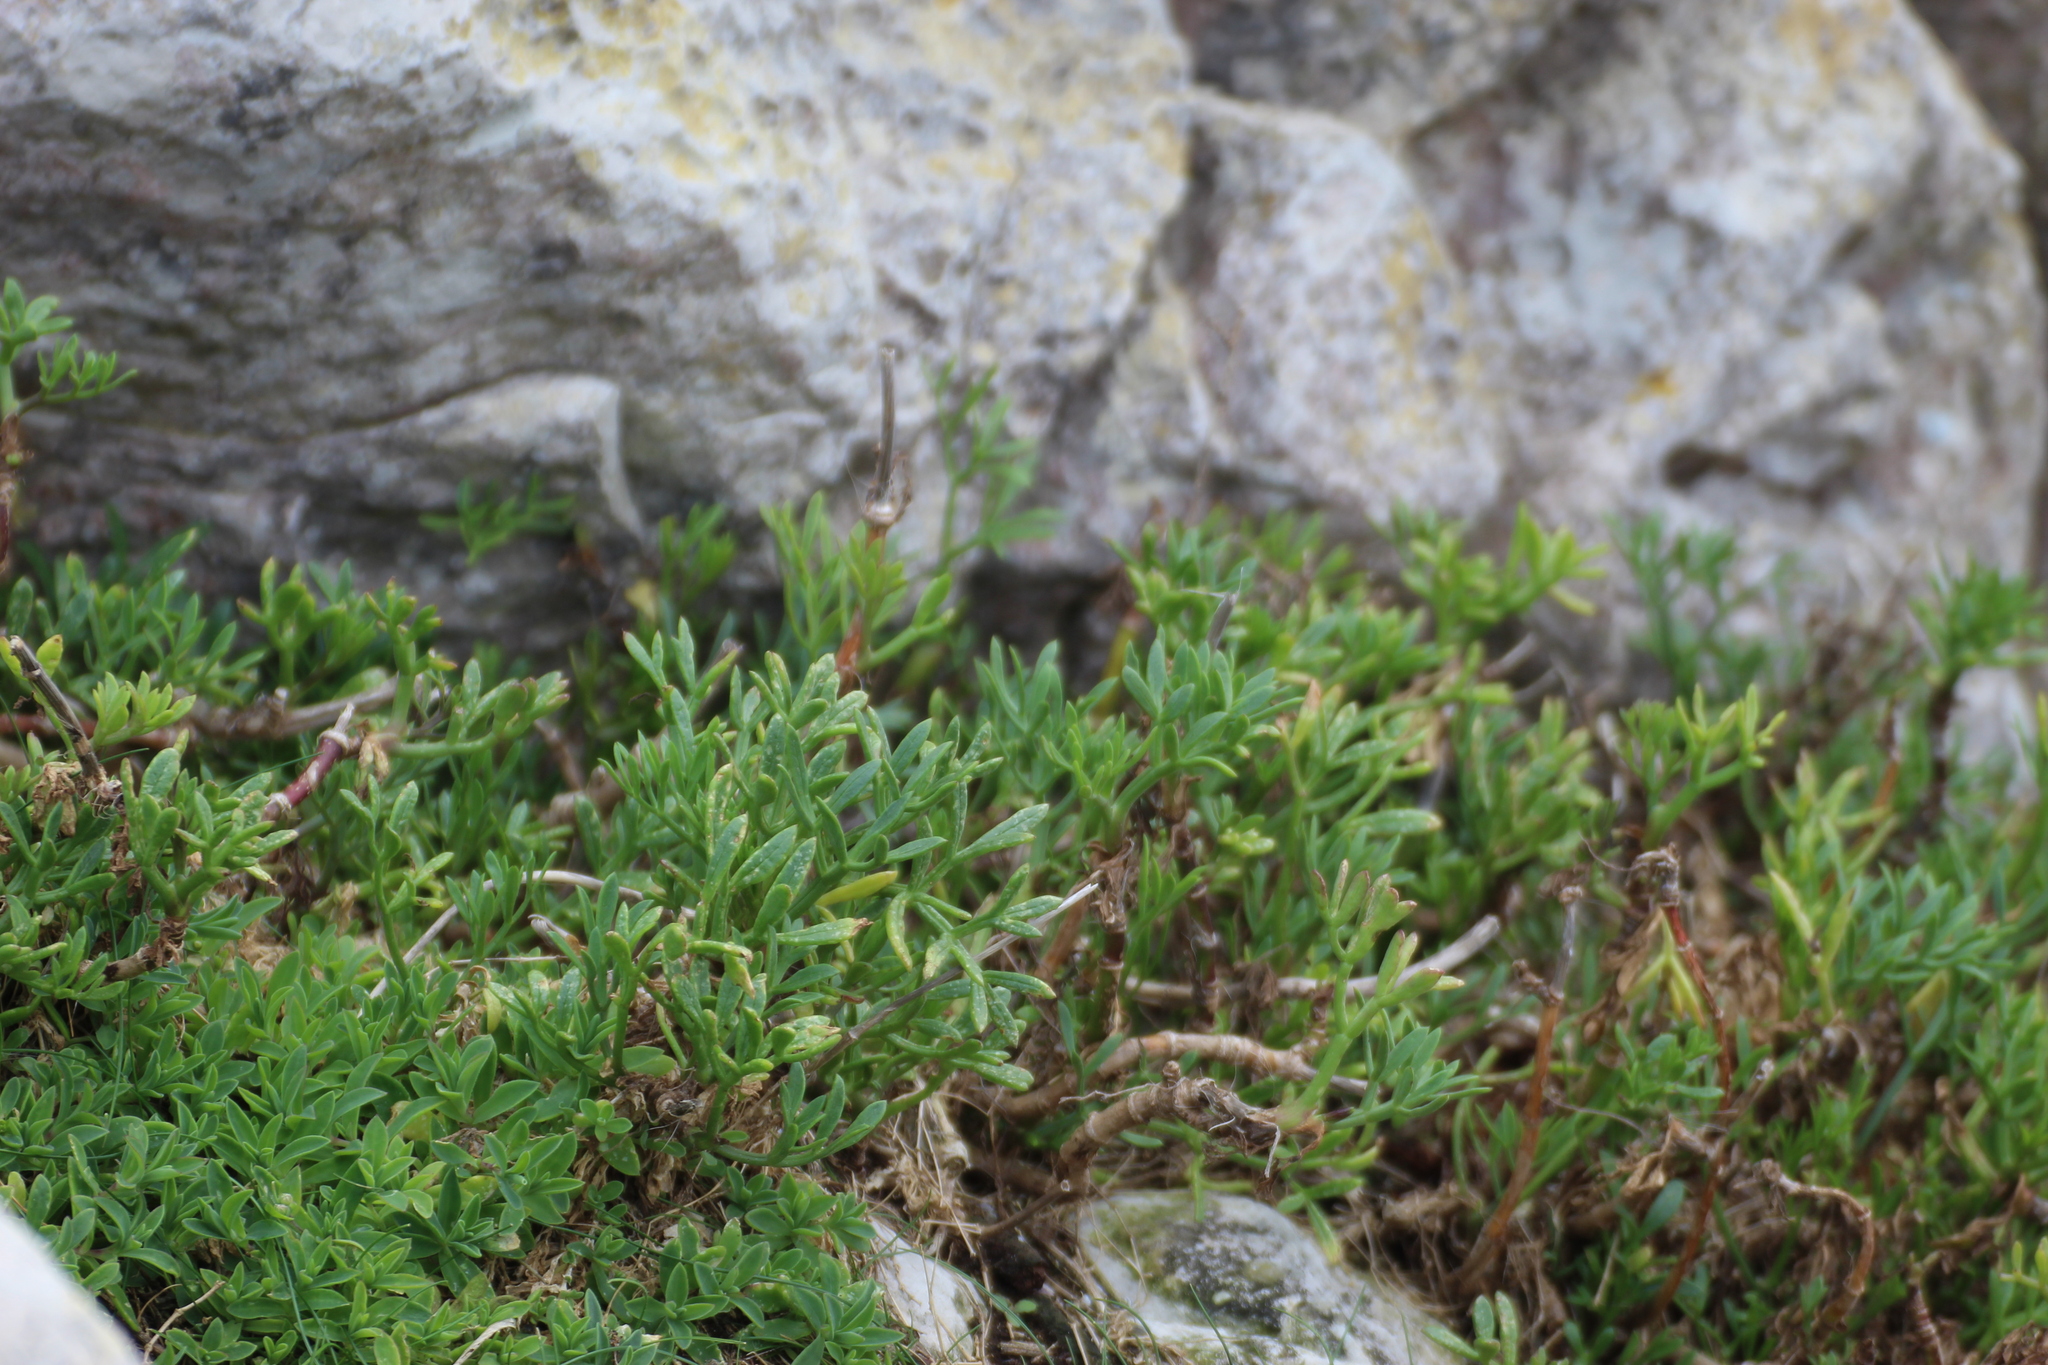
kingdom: Plantae
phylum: Tracheophyta
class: Magnoliopsida
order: Apiales
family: Apiaceae
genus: Crithmum
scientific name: Crithmum maritimum
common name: Rock samphire
